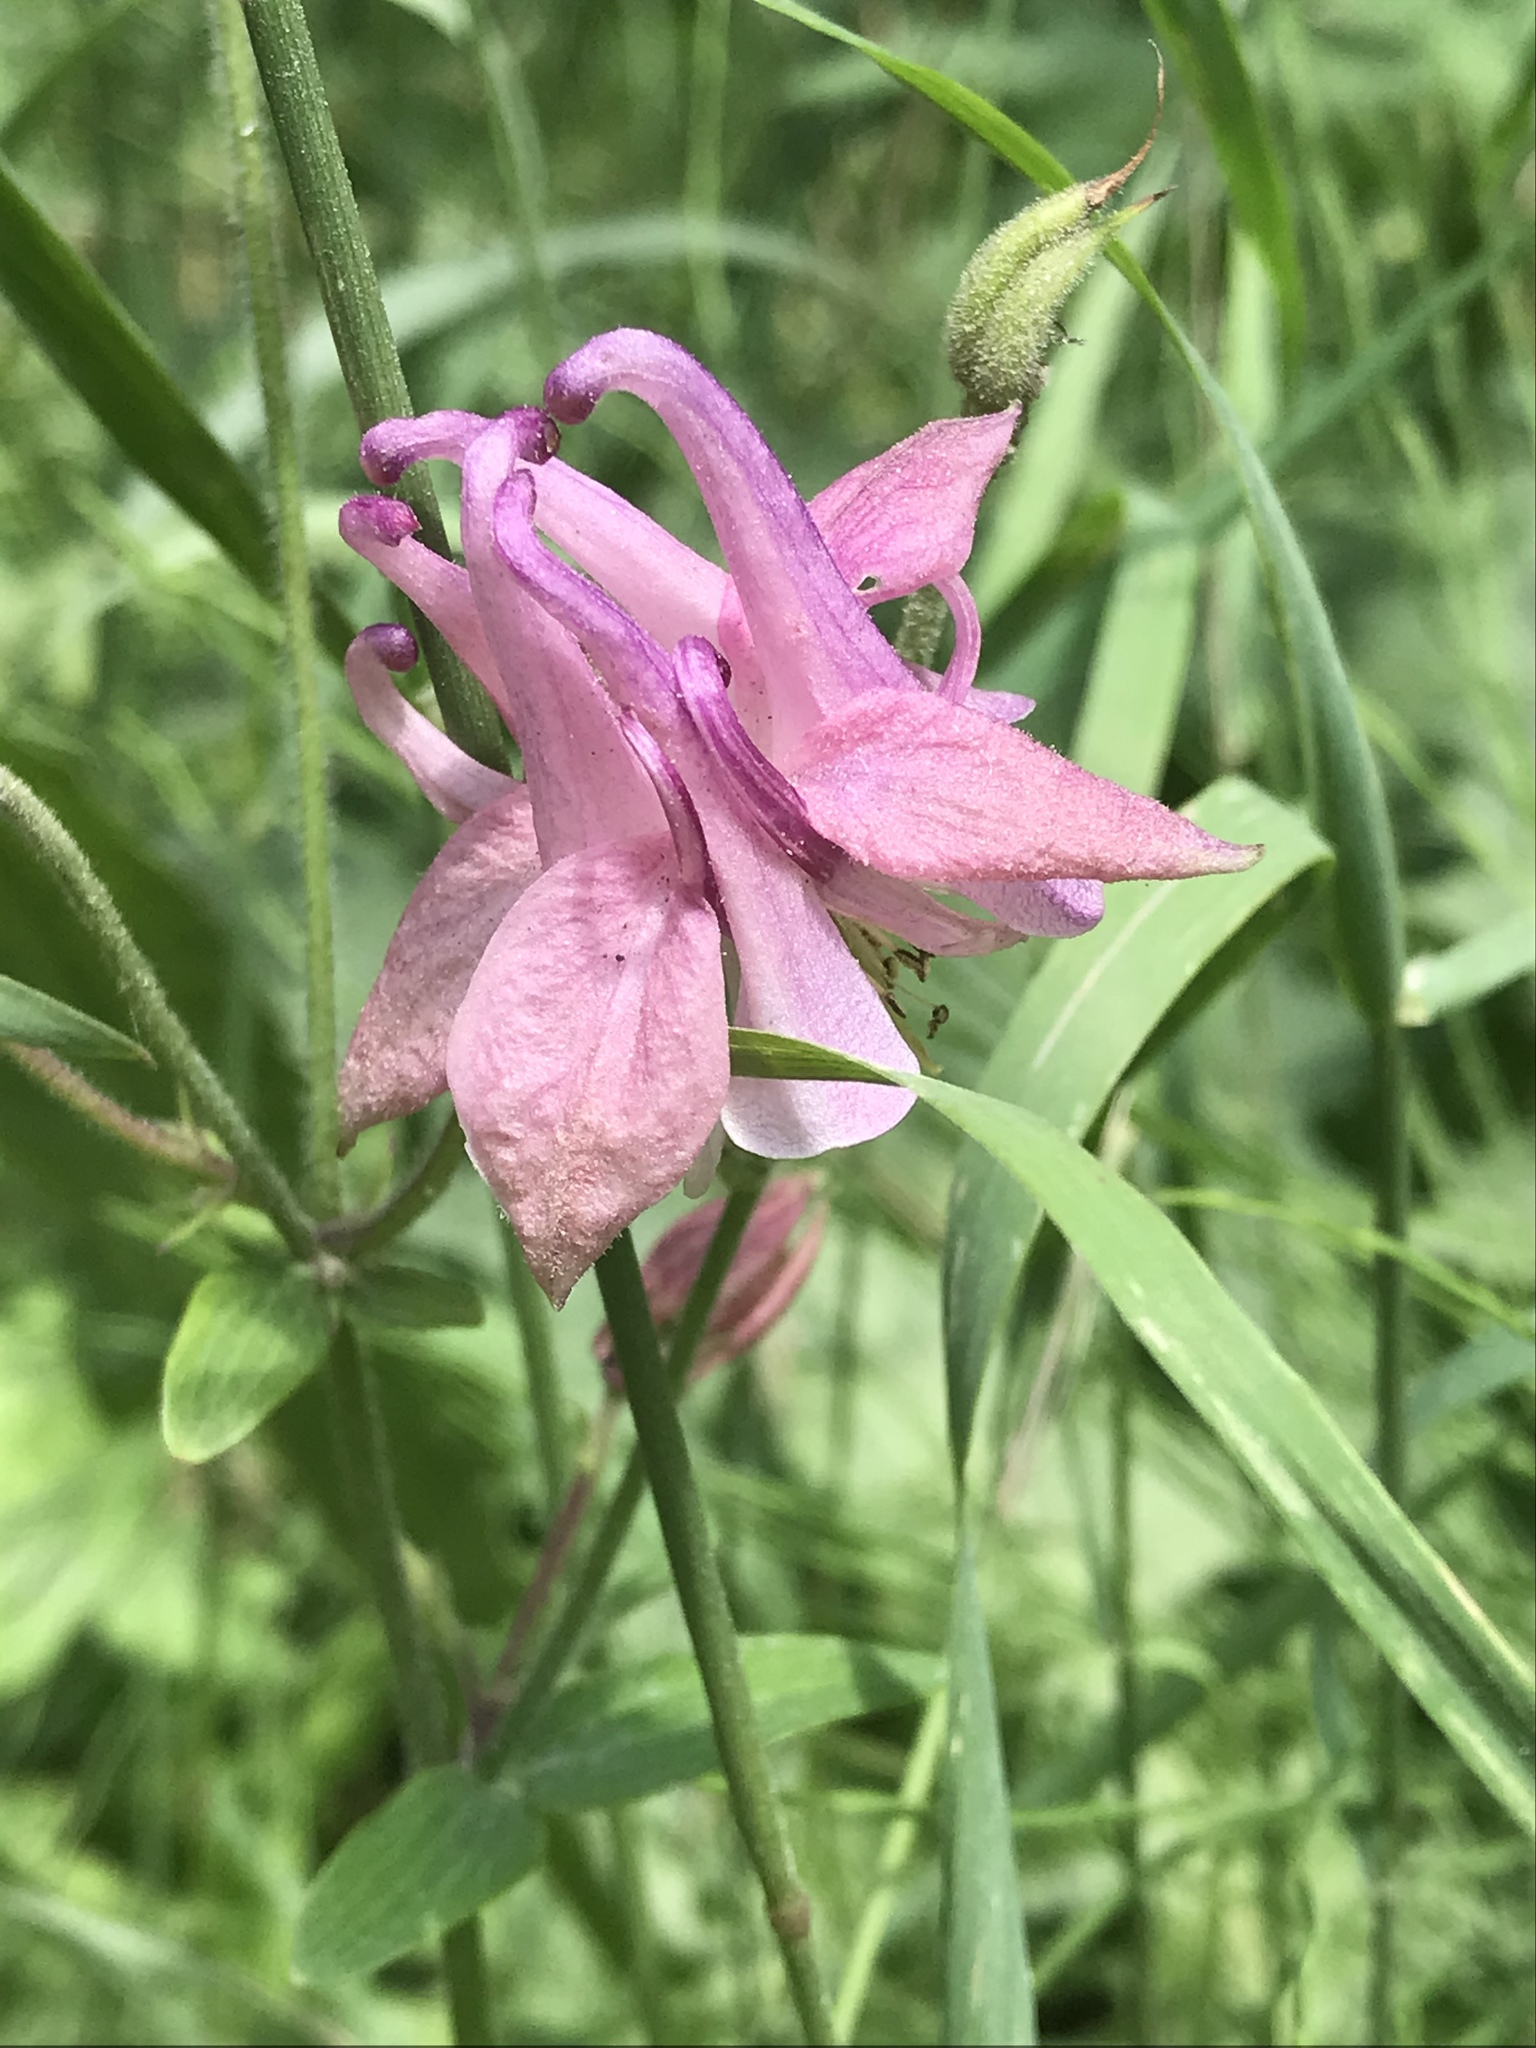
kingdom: Plantae
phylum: Tracheophyta
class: Magnoliopsida
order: Ranunculales
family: Ranunculaceae
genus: Aquilegia
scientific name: Aquilegia vulgaris
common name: Columbine
